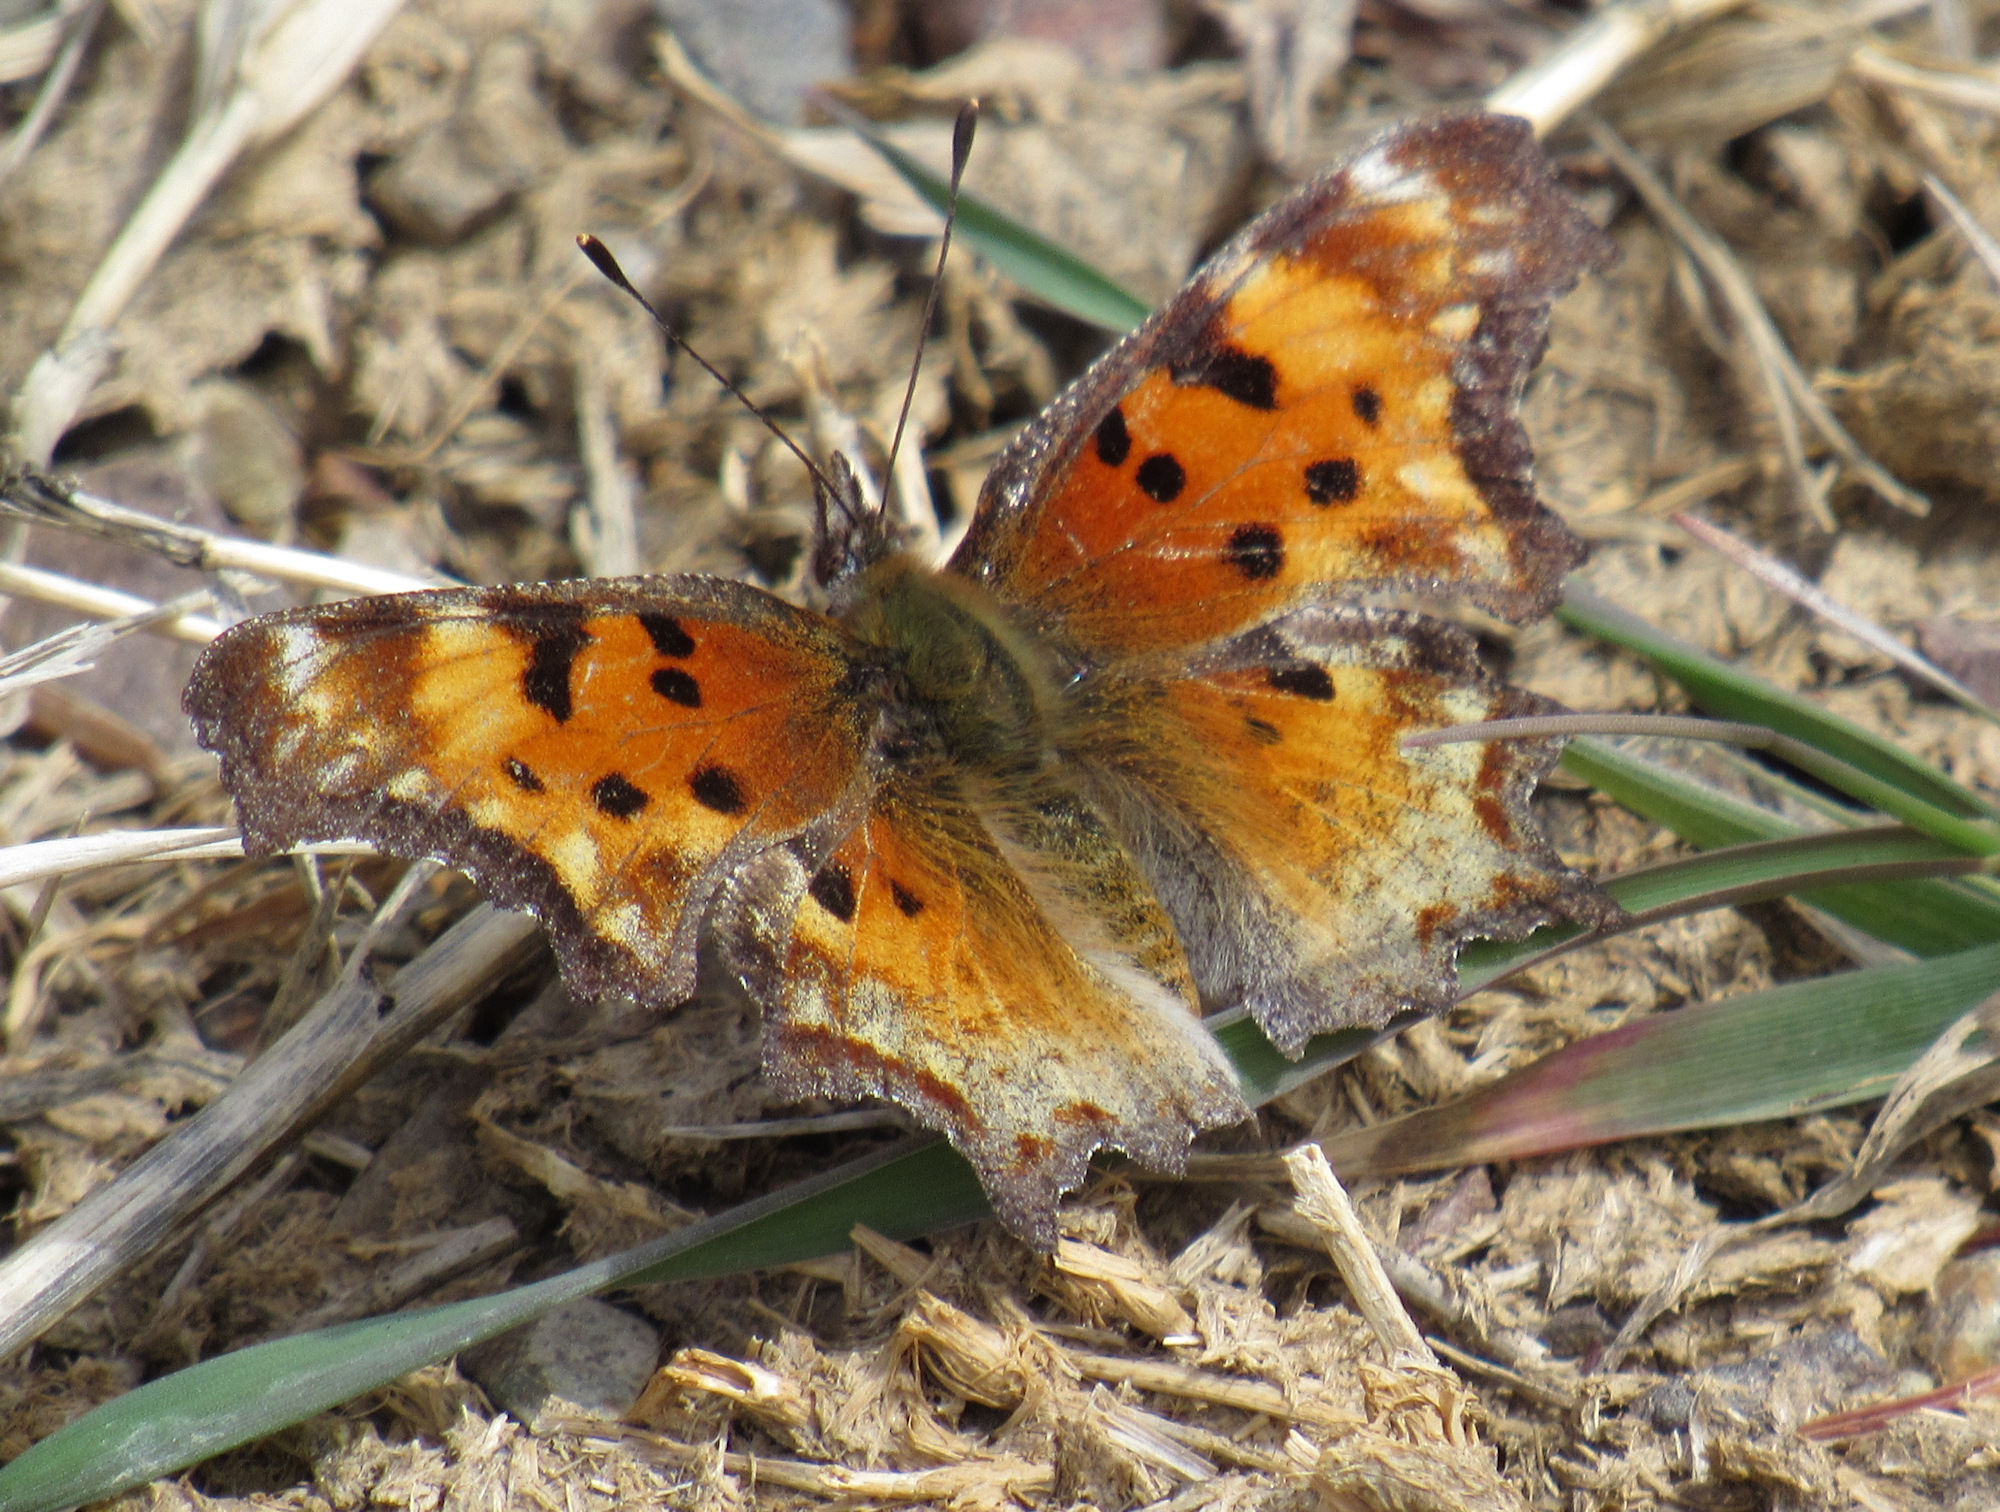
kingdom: Animalia
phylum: Arthropoda
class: Insecta
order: Lepidoptera
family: Nymphalidae
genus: Polygonia
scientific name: Polygonia gracilis
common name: Hoary comma
